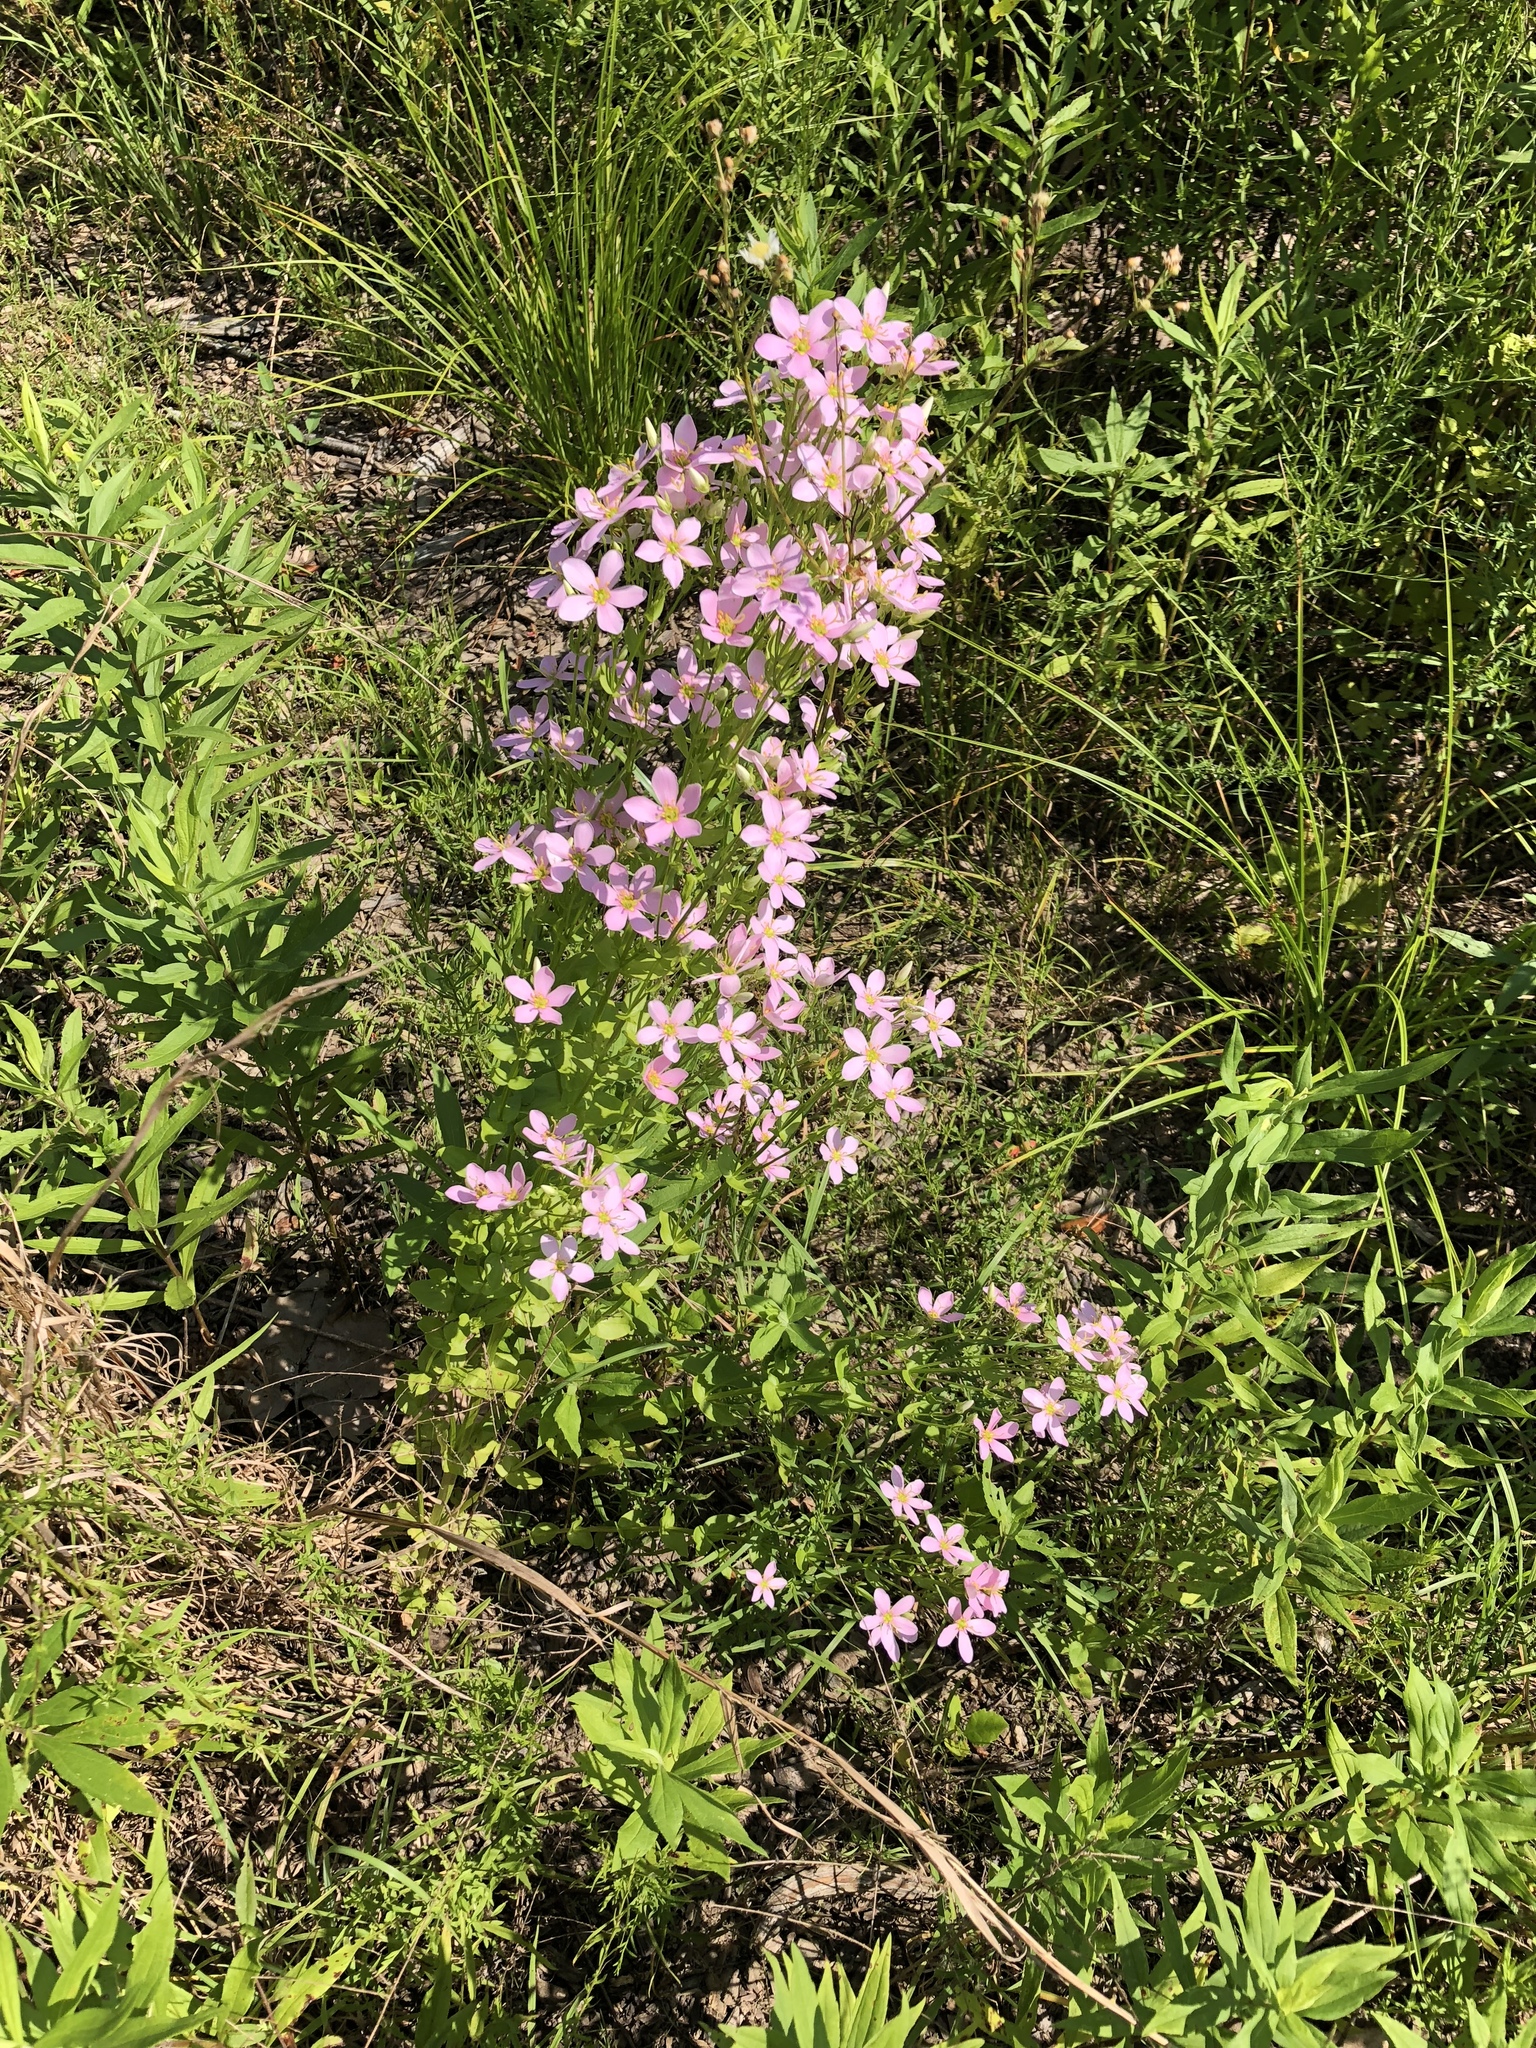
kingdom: Plantae
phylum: Tracheophyta
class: Magnoliopsida
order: Gentianales
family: Gentianaceae
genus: Sabatia
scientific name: Sabatia angularis
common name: Rose-pink
